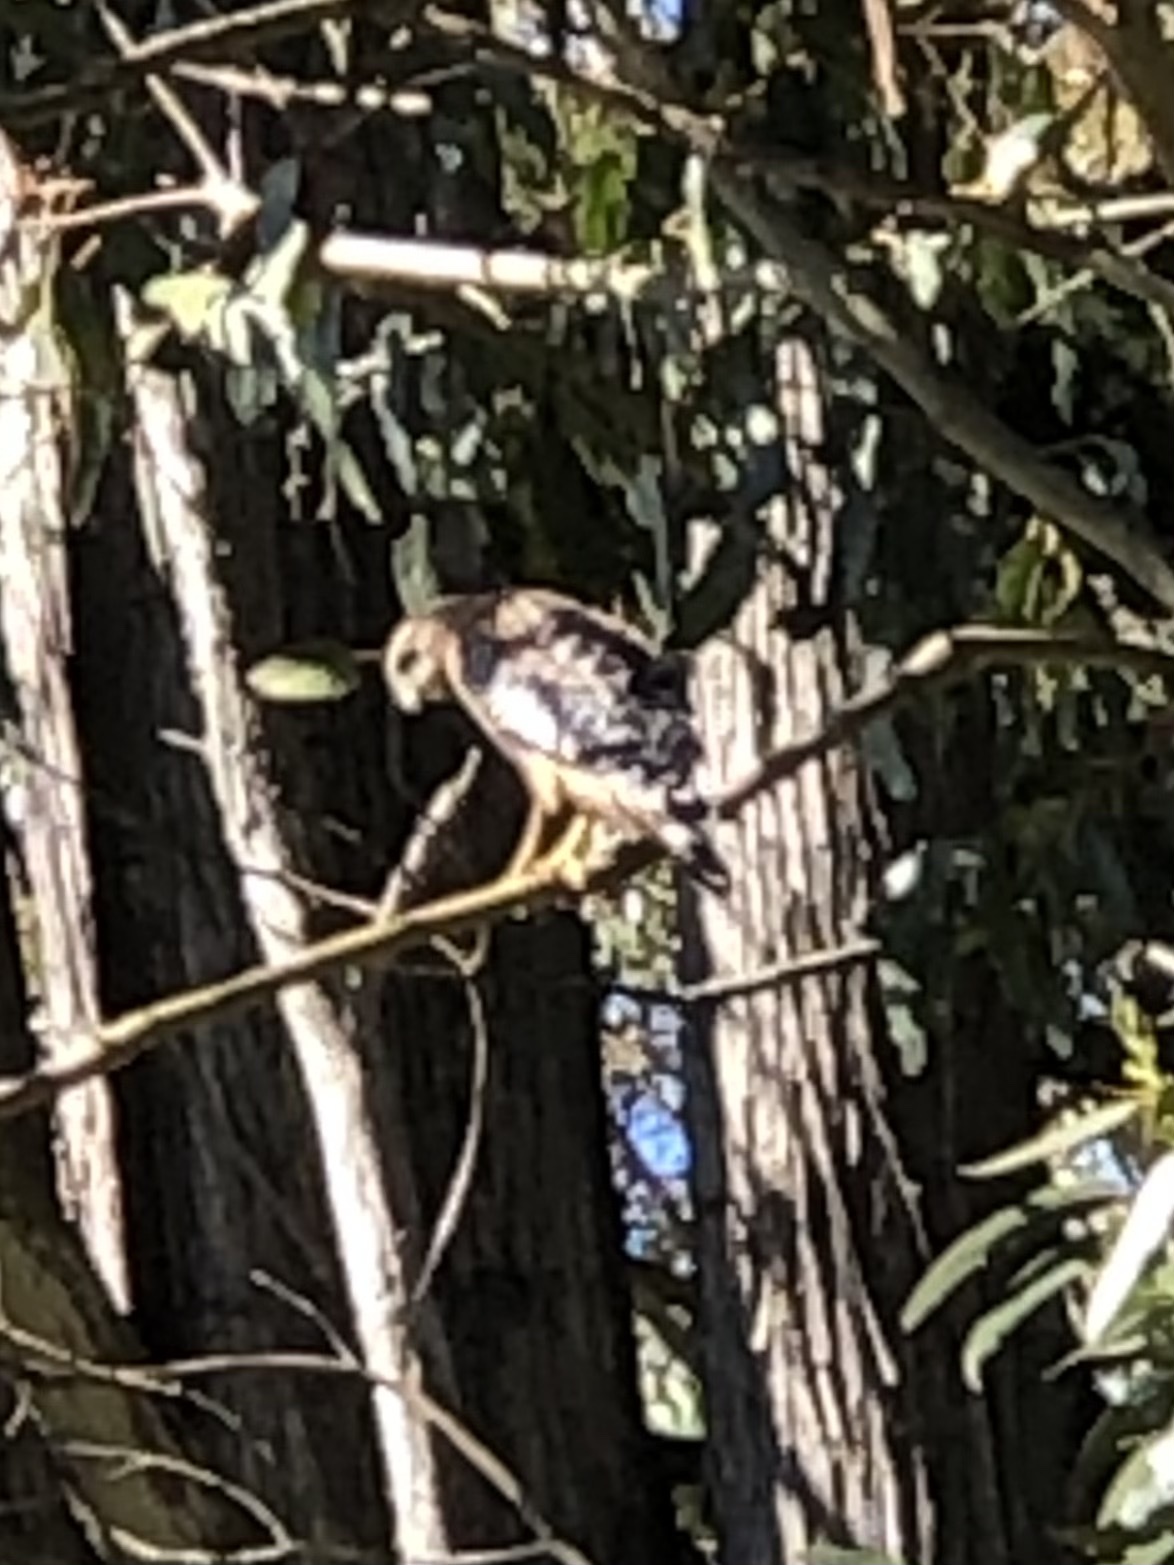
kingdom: Animalia
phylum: Chordata
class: Aves
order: Accipitriformes
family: Accipitridae
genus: Buteo
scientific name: Buteo lineatus
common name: Red-shouldered hawk
